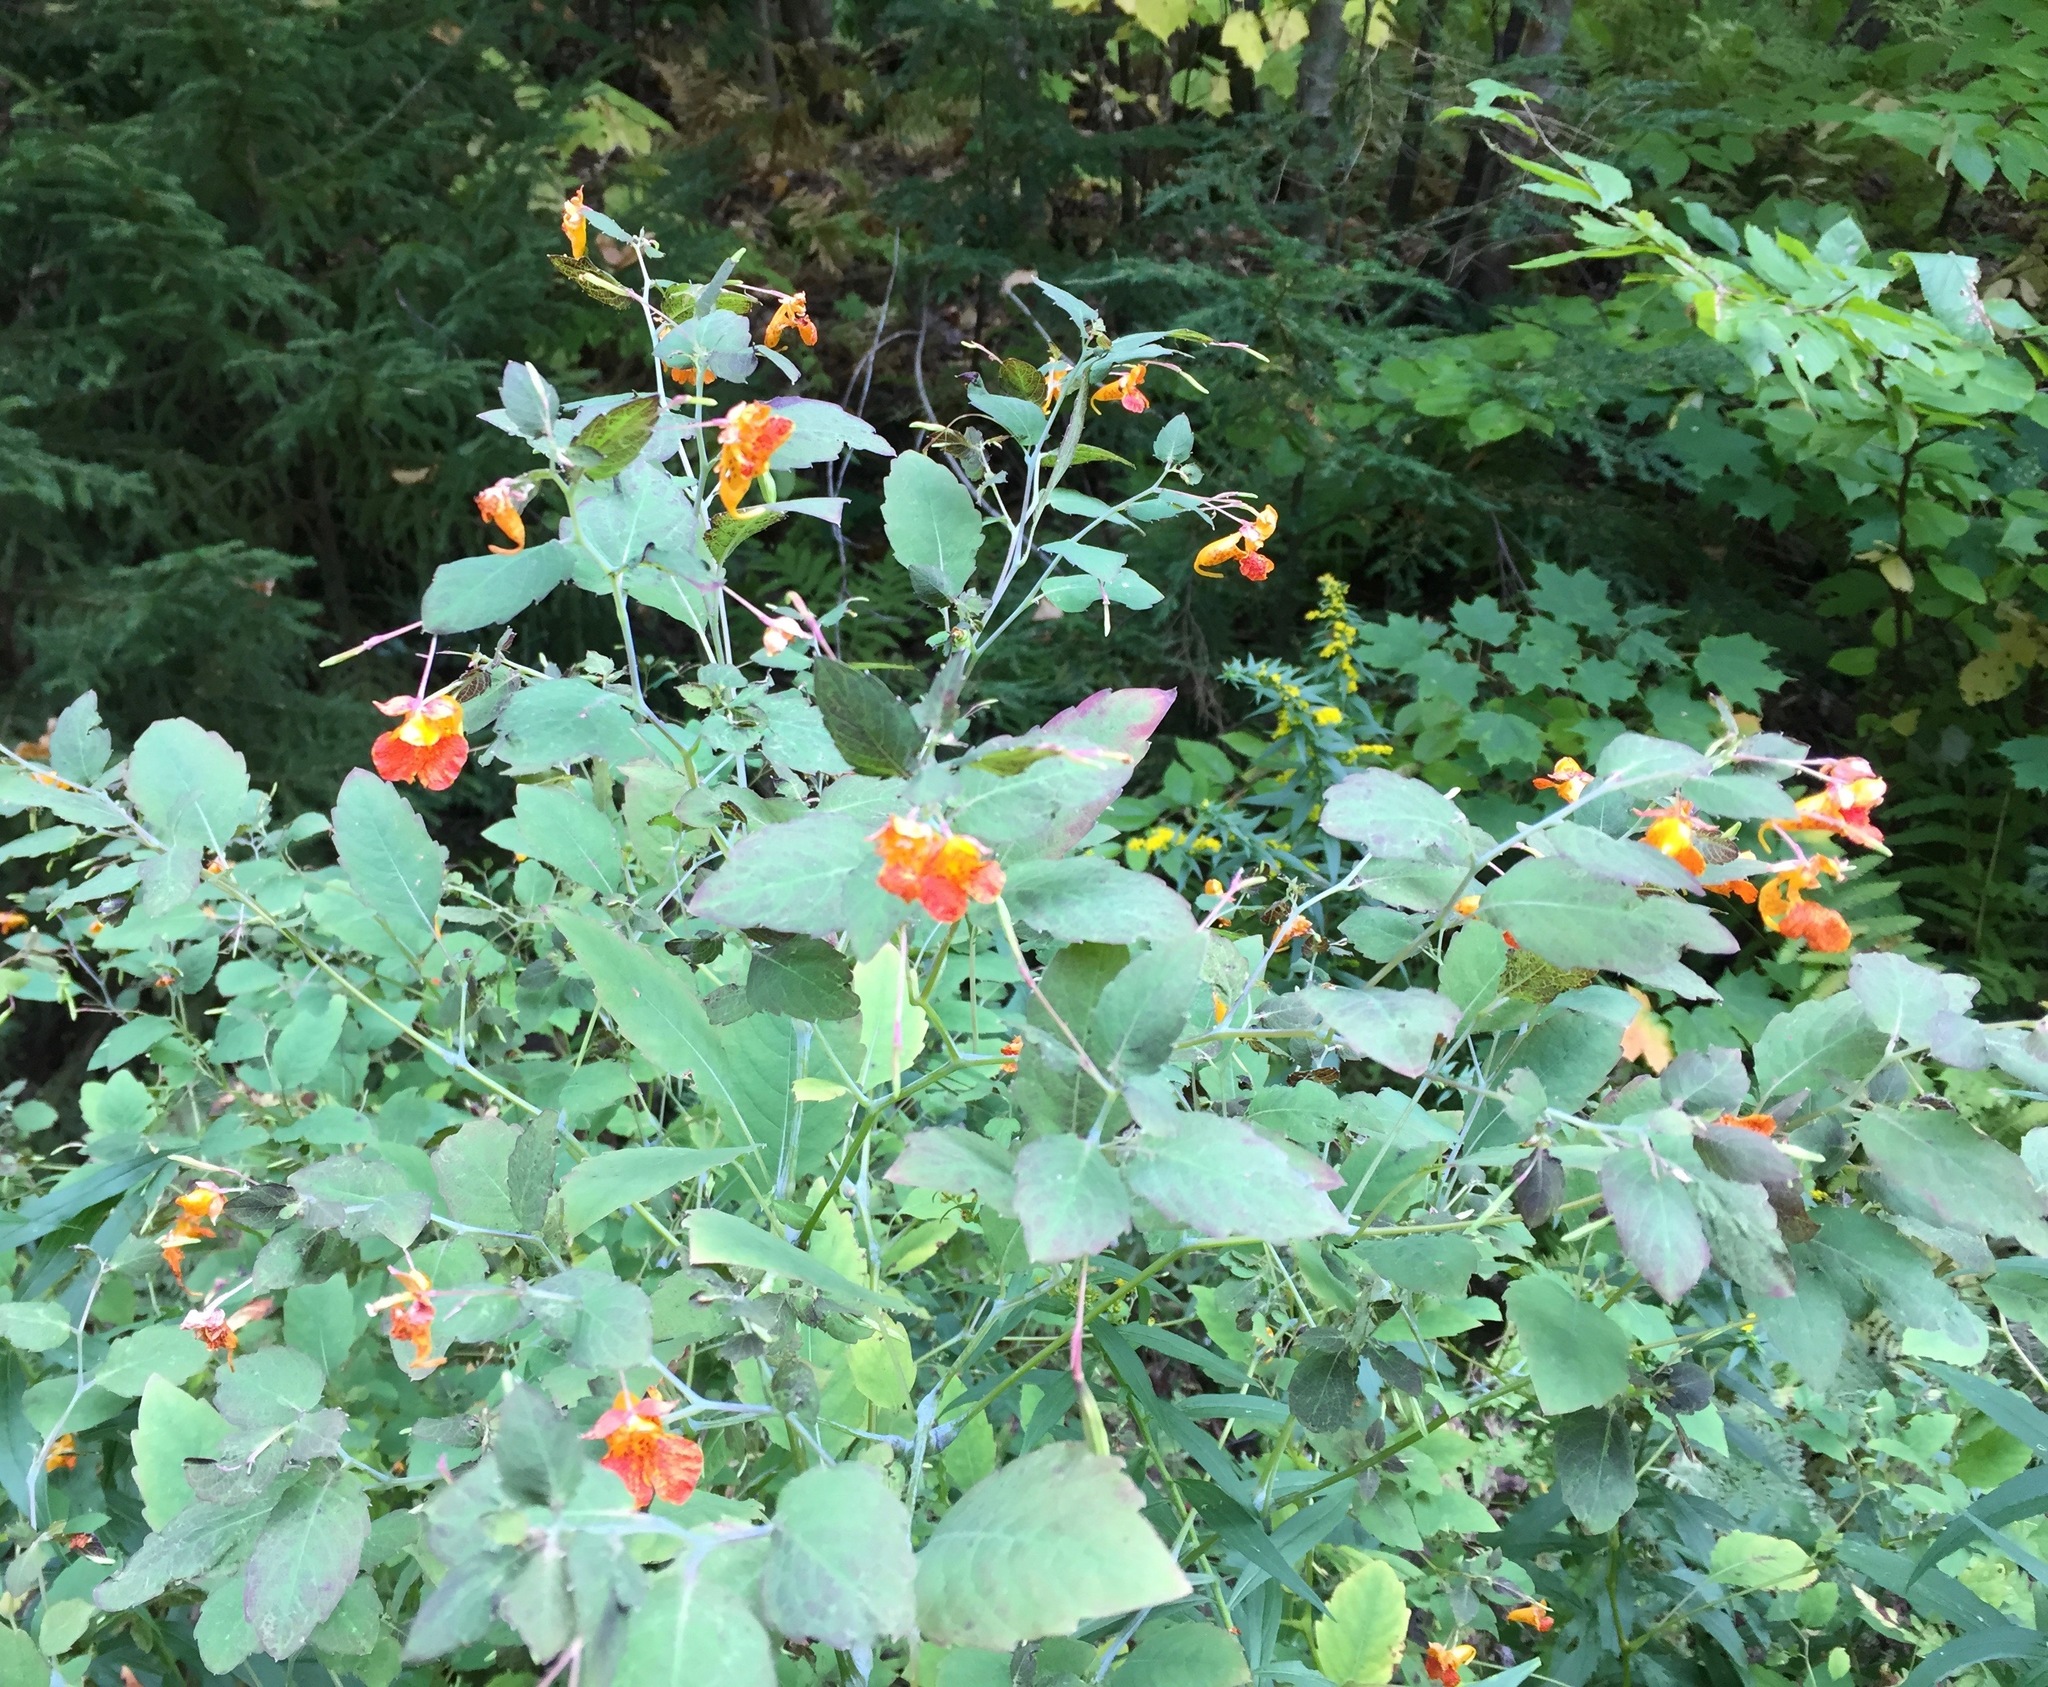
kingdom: Plantae
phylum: Tracheophyta
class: Magnoliopsida
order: Ericales
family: Balsaminaceae
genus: Impatiens
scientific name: Impatiens capensis
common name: Orange balsam
